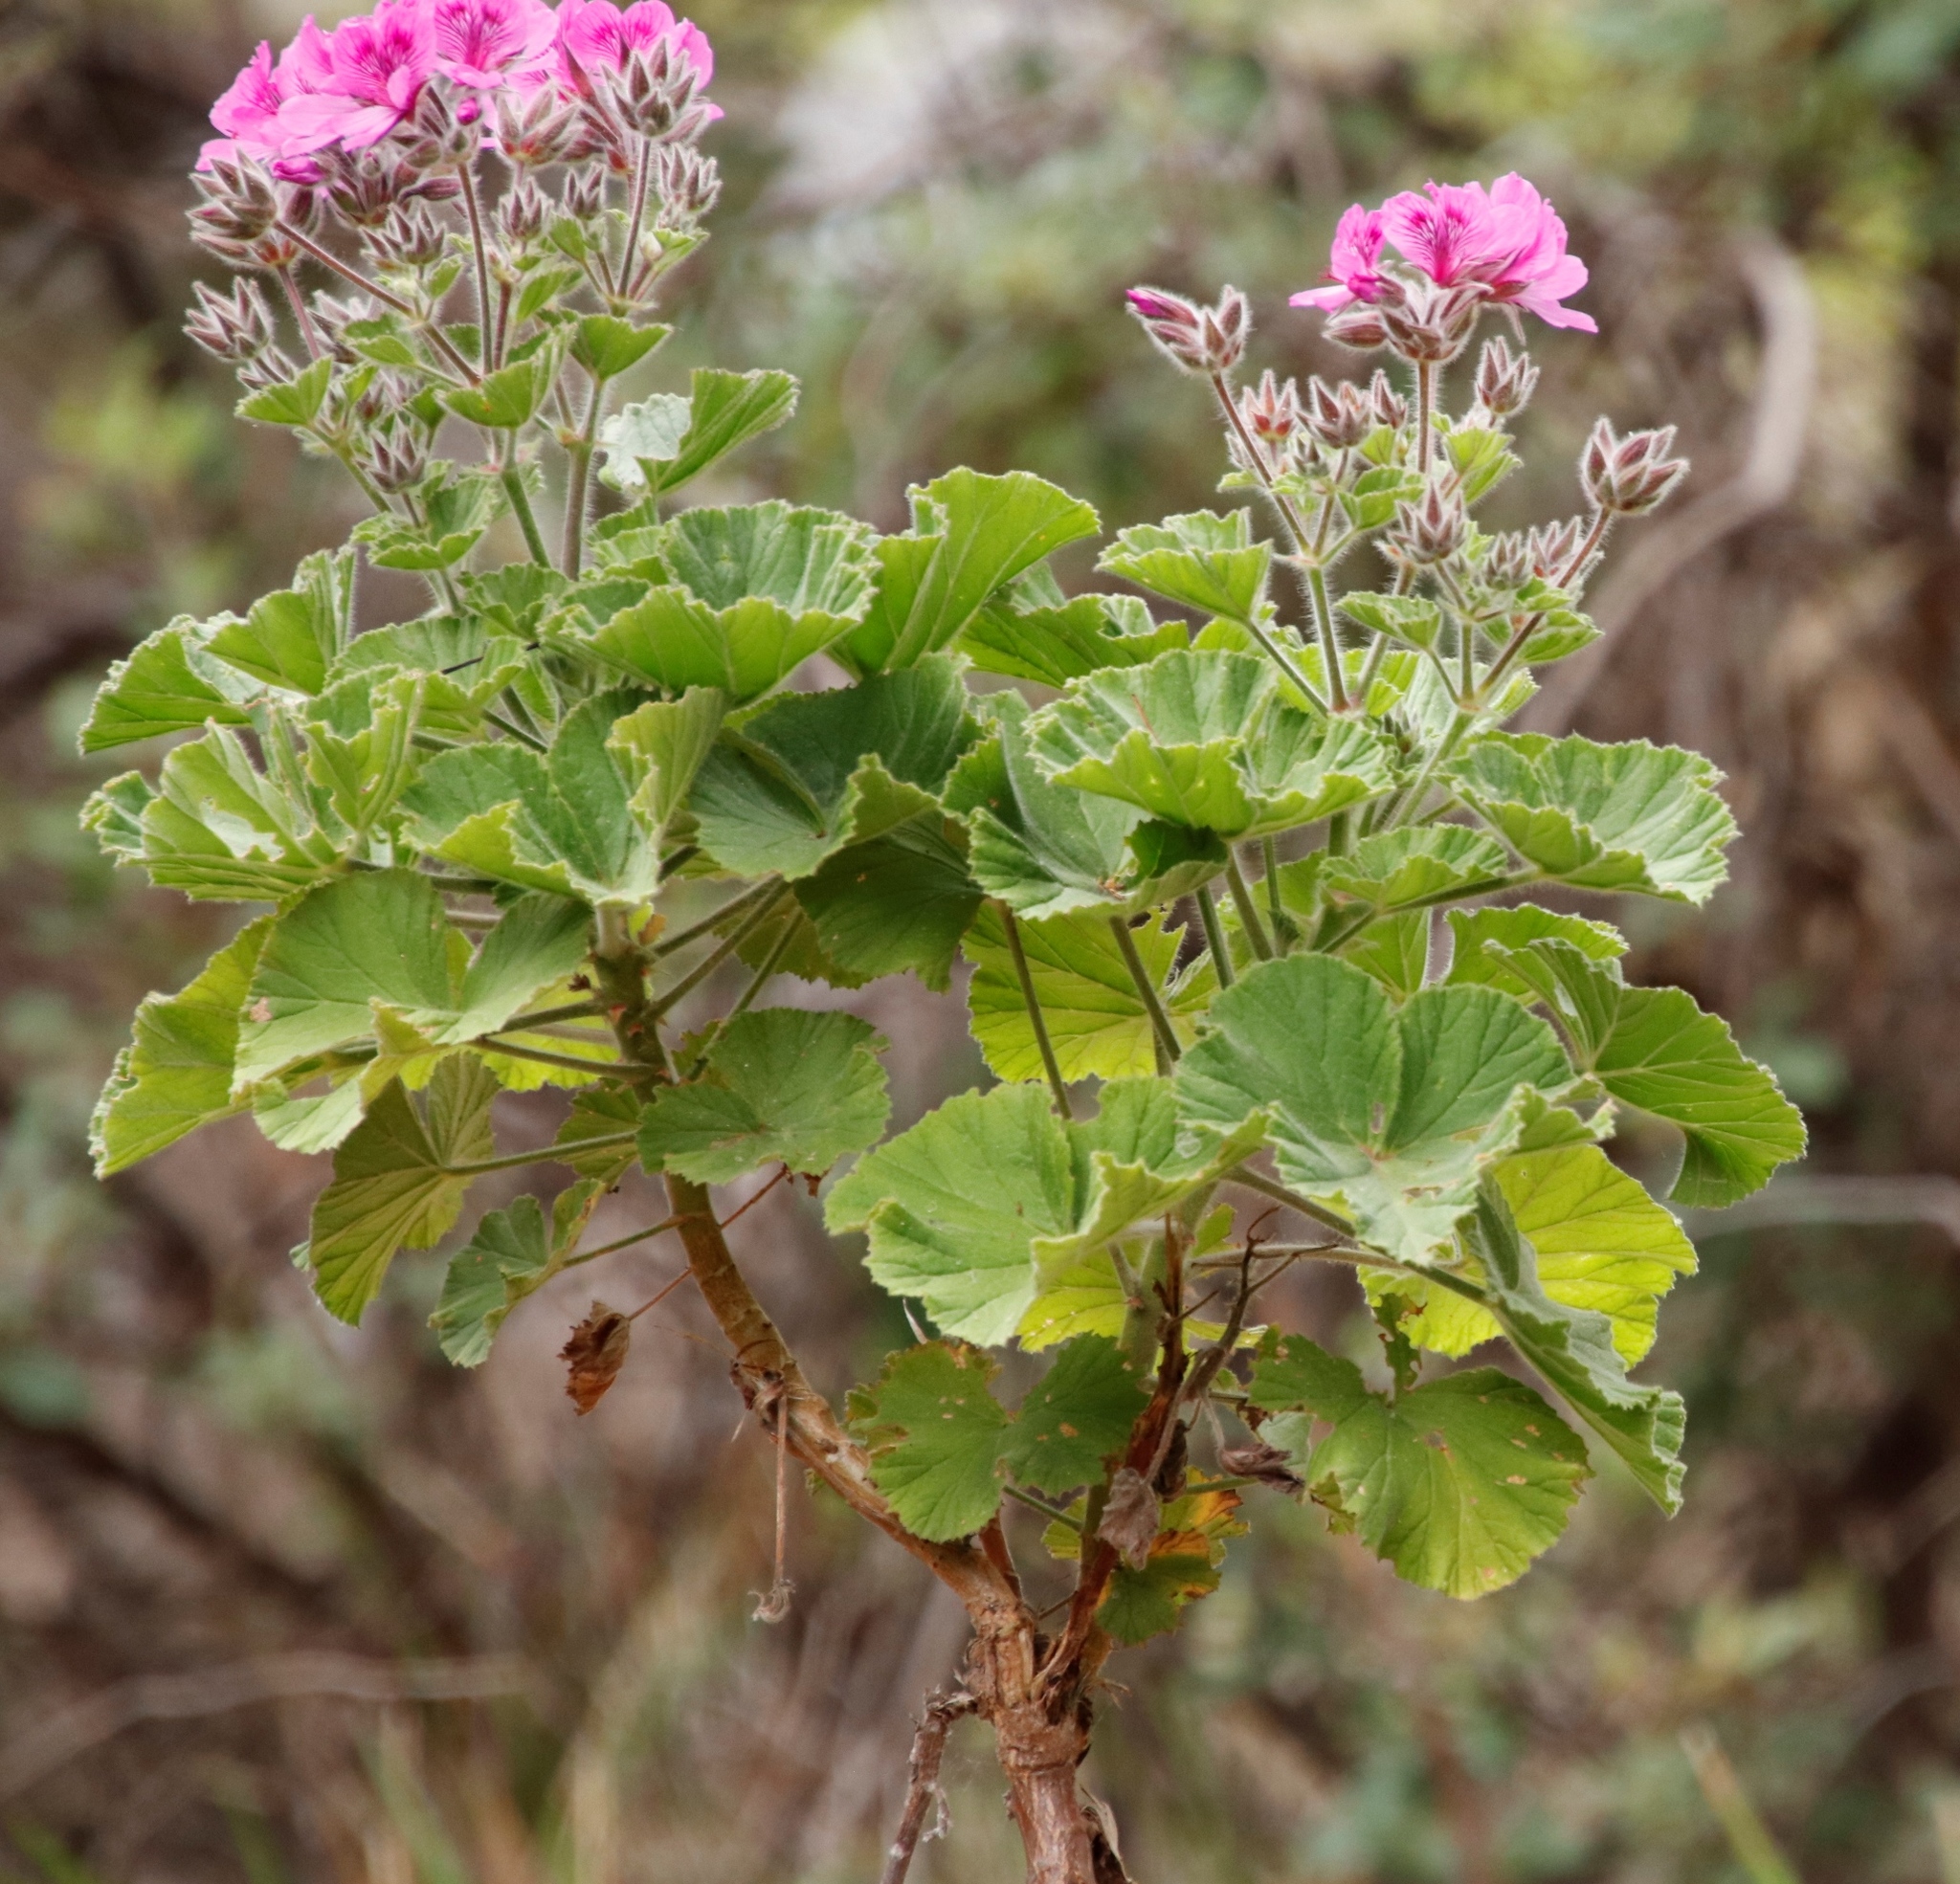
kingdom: Plantae
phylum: Tracheophyta
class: Magnoliopsida
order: Geraniales
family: Geraniaceae
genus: Pelargonium
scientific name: Pelargonium cucullatum
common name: Tree pelargonium
